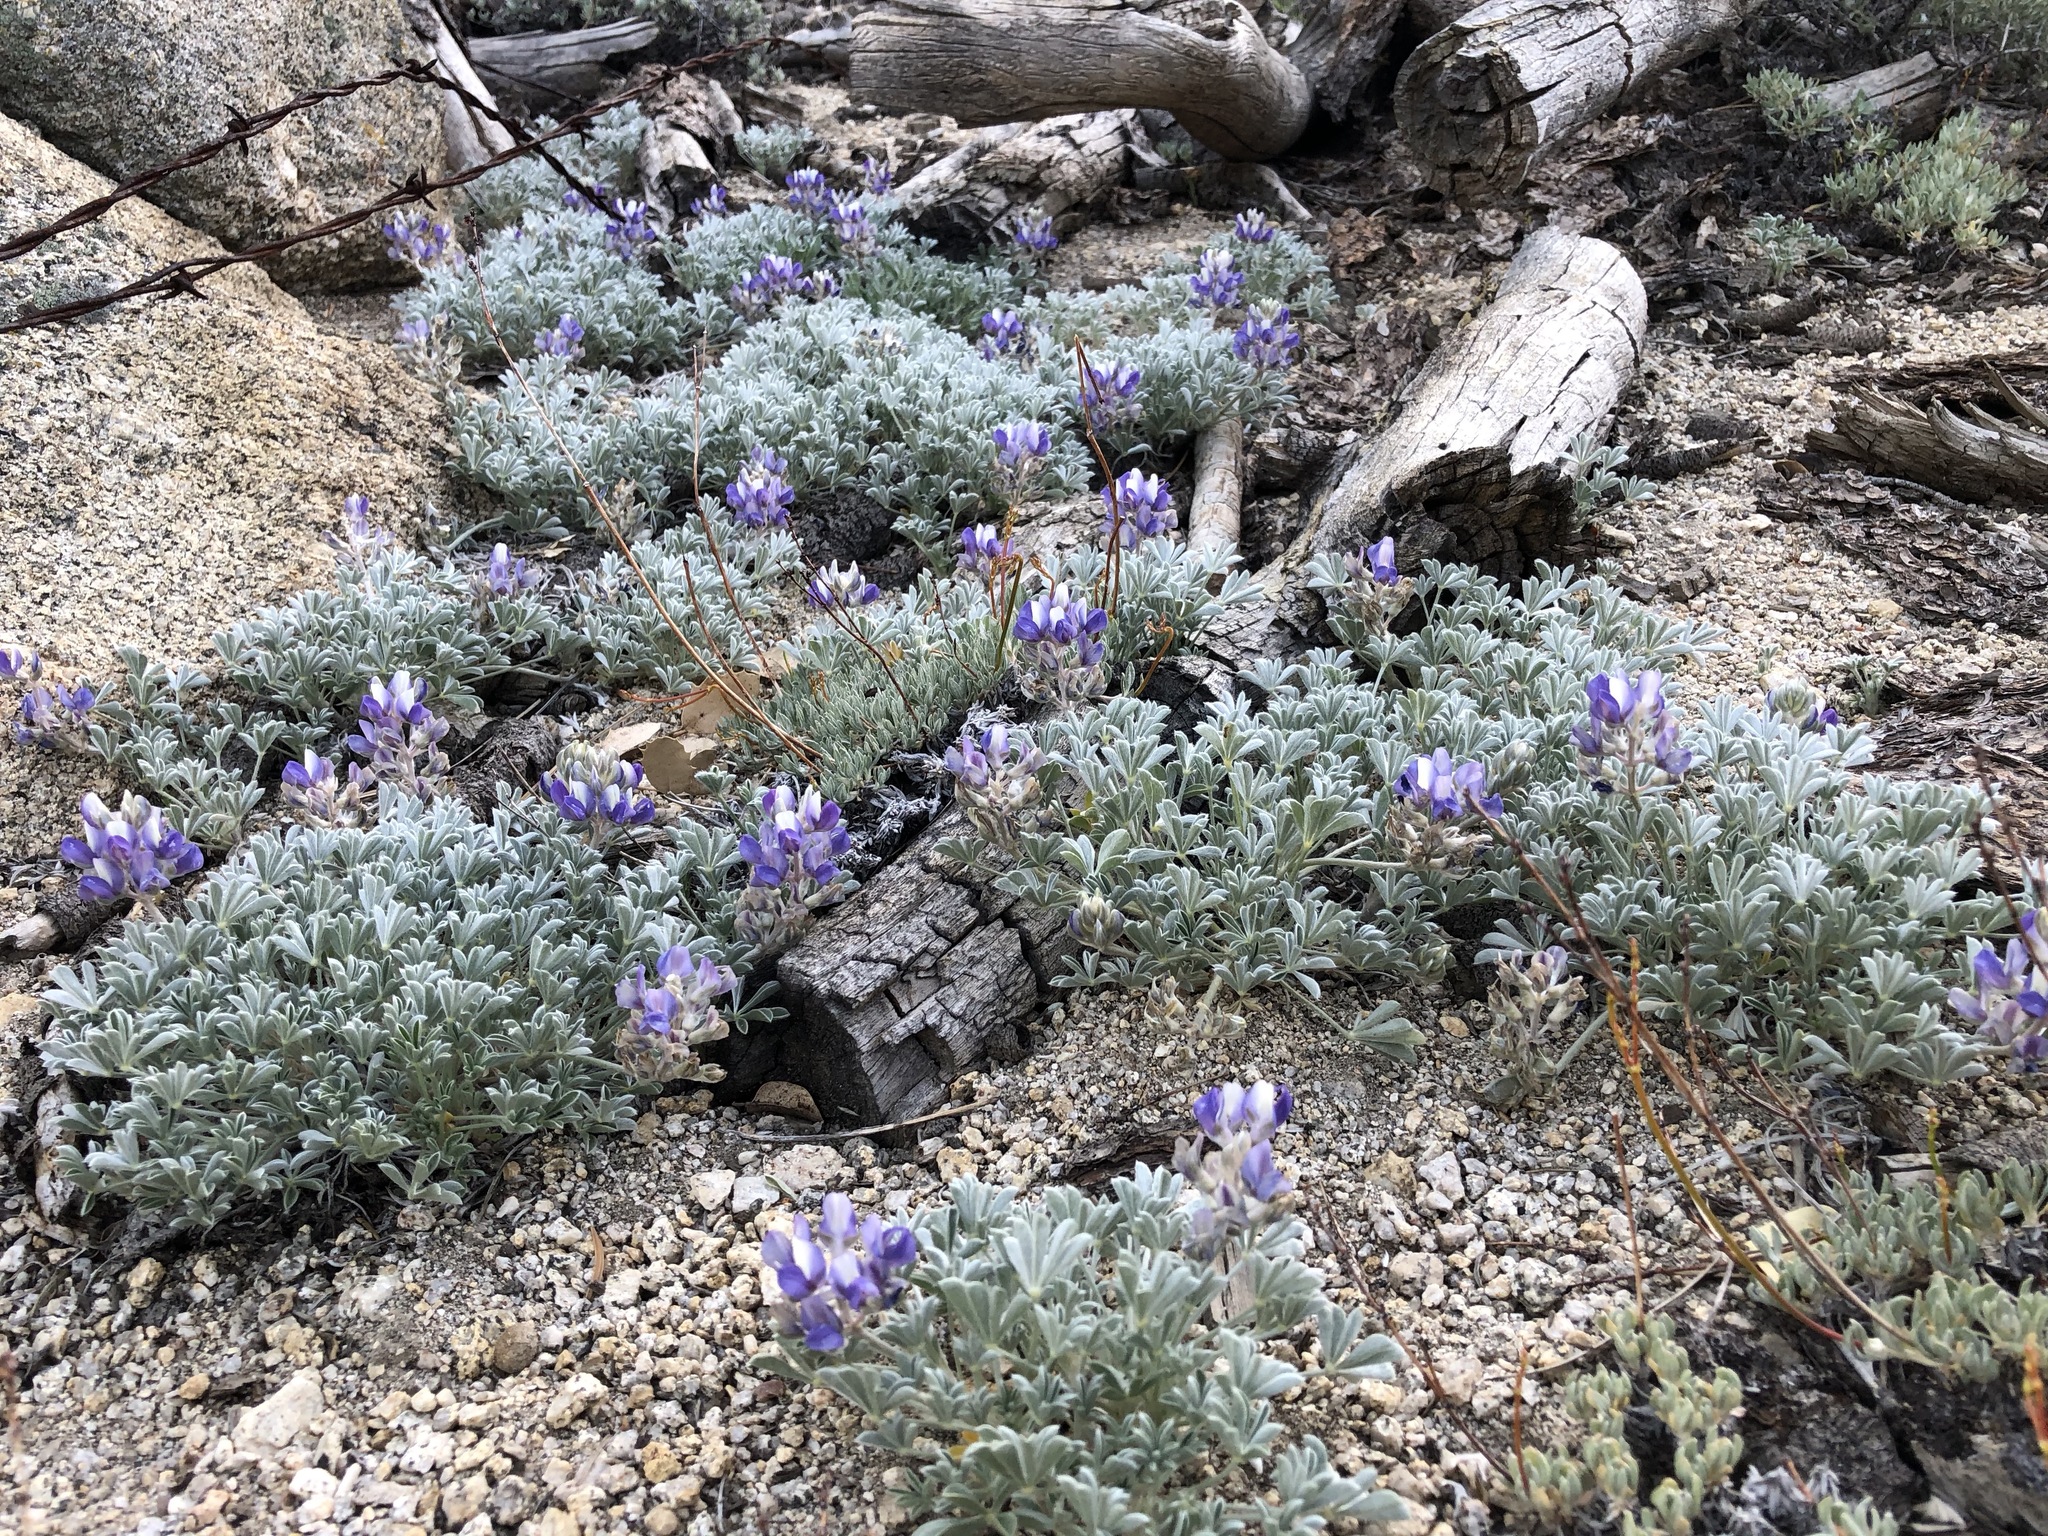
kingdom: Plantae
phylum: Tracheophyta
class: Magnoliopsida
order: Fabales
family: Fabaceae
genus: Lupinus
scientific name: Lupinus breweri
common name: Brewer's lupine
